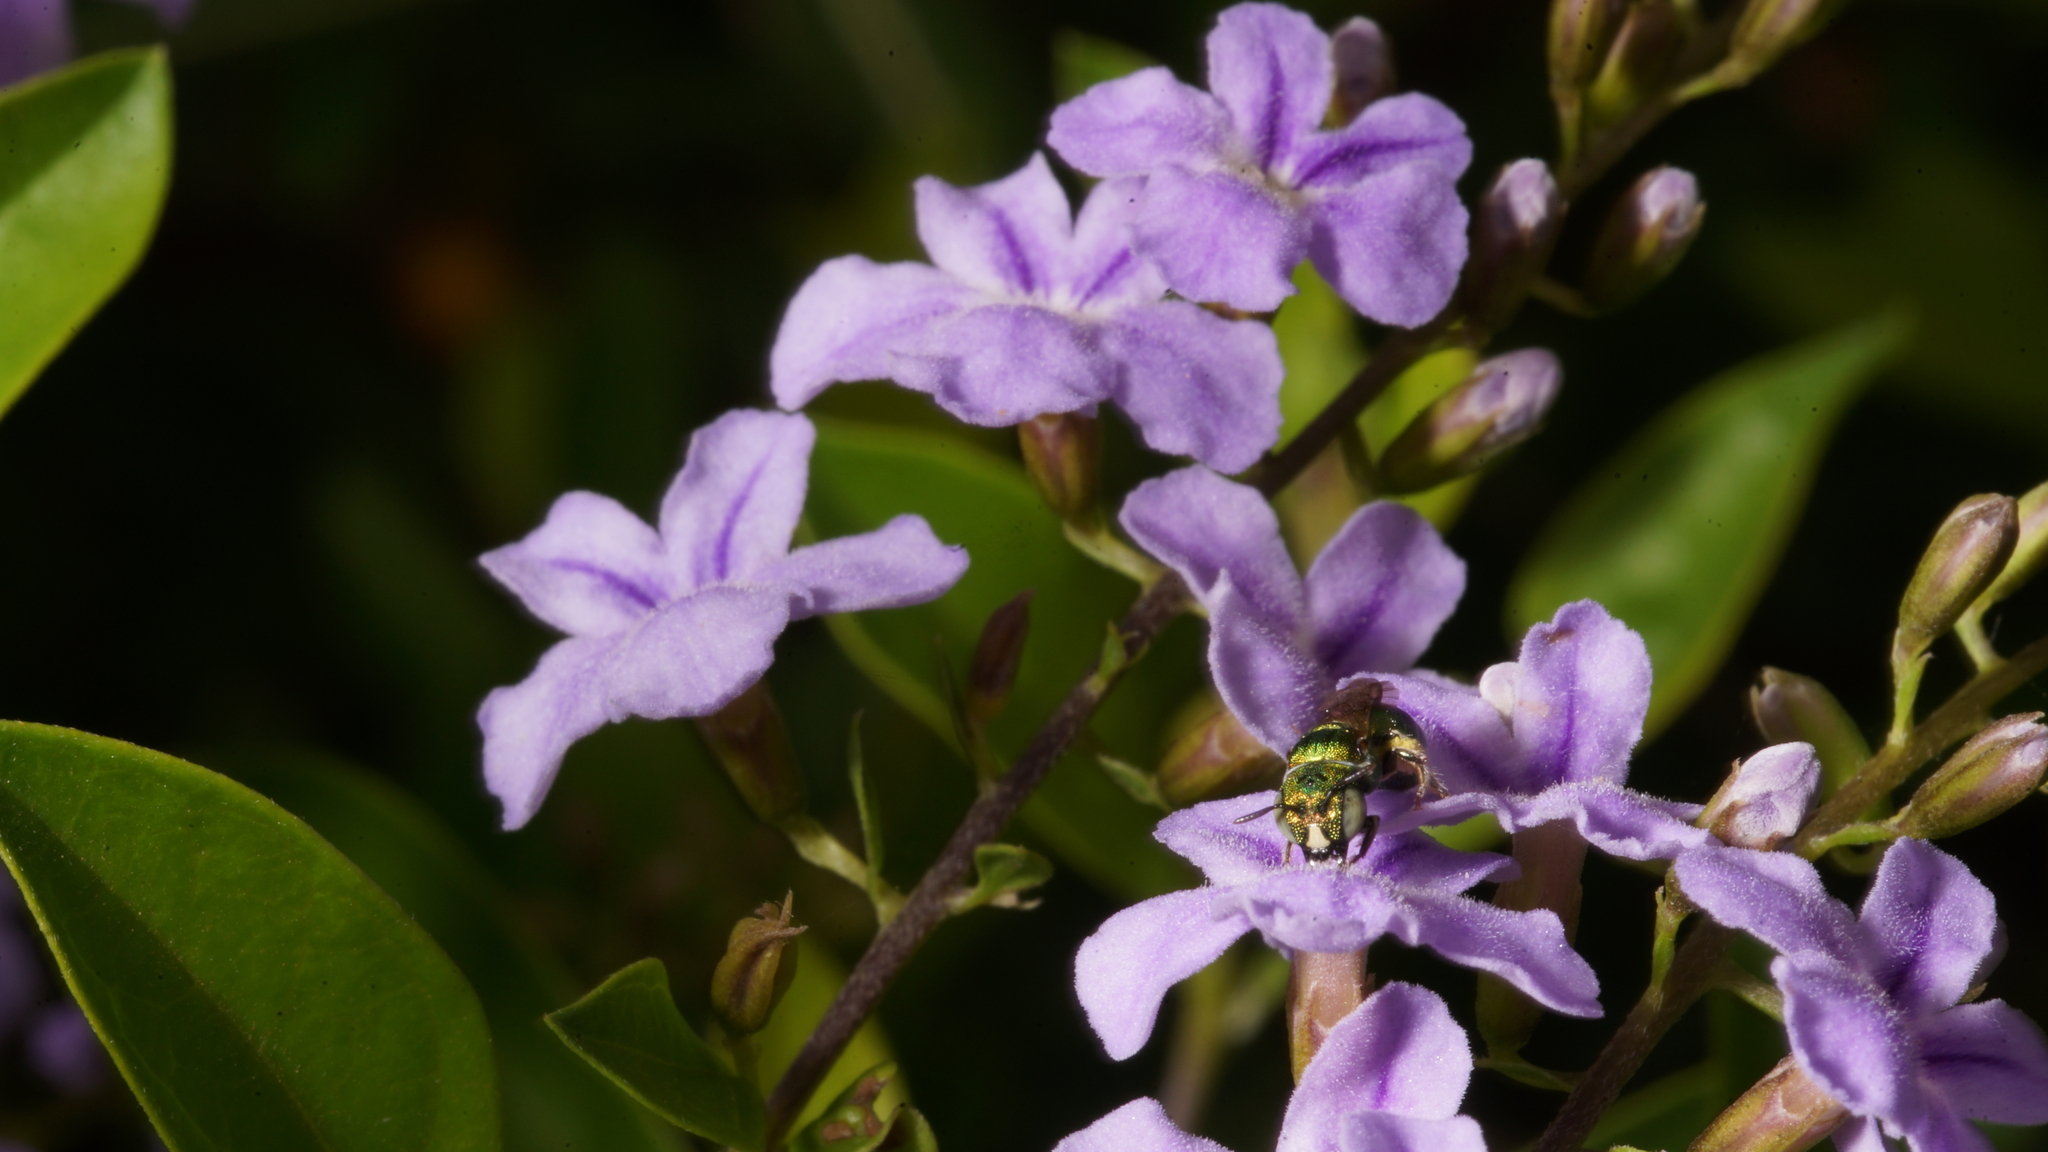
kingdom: Animalia
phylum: Arthropoda
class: Insecta
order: Hymenoptera
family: Apidae
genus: Ceratina
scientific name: Ceratina smaragdula
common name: Small carpenter bee
